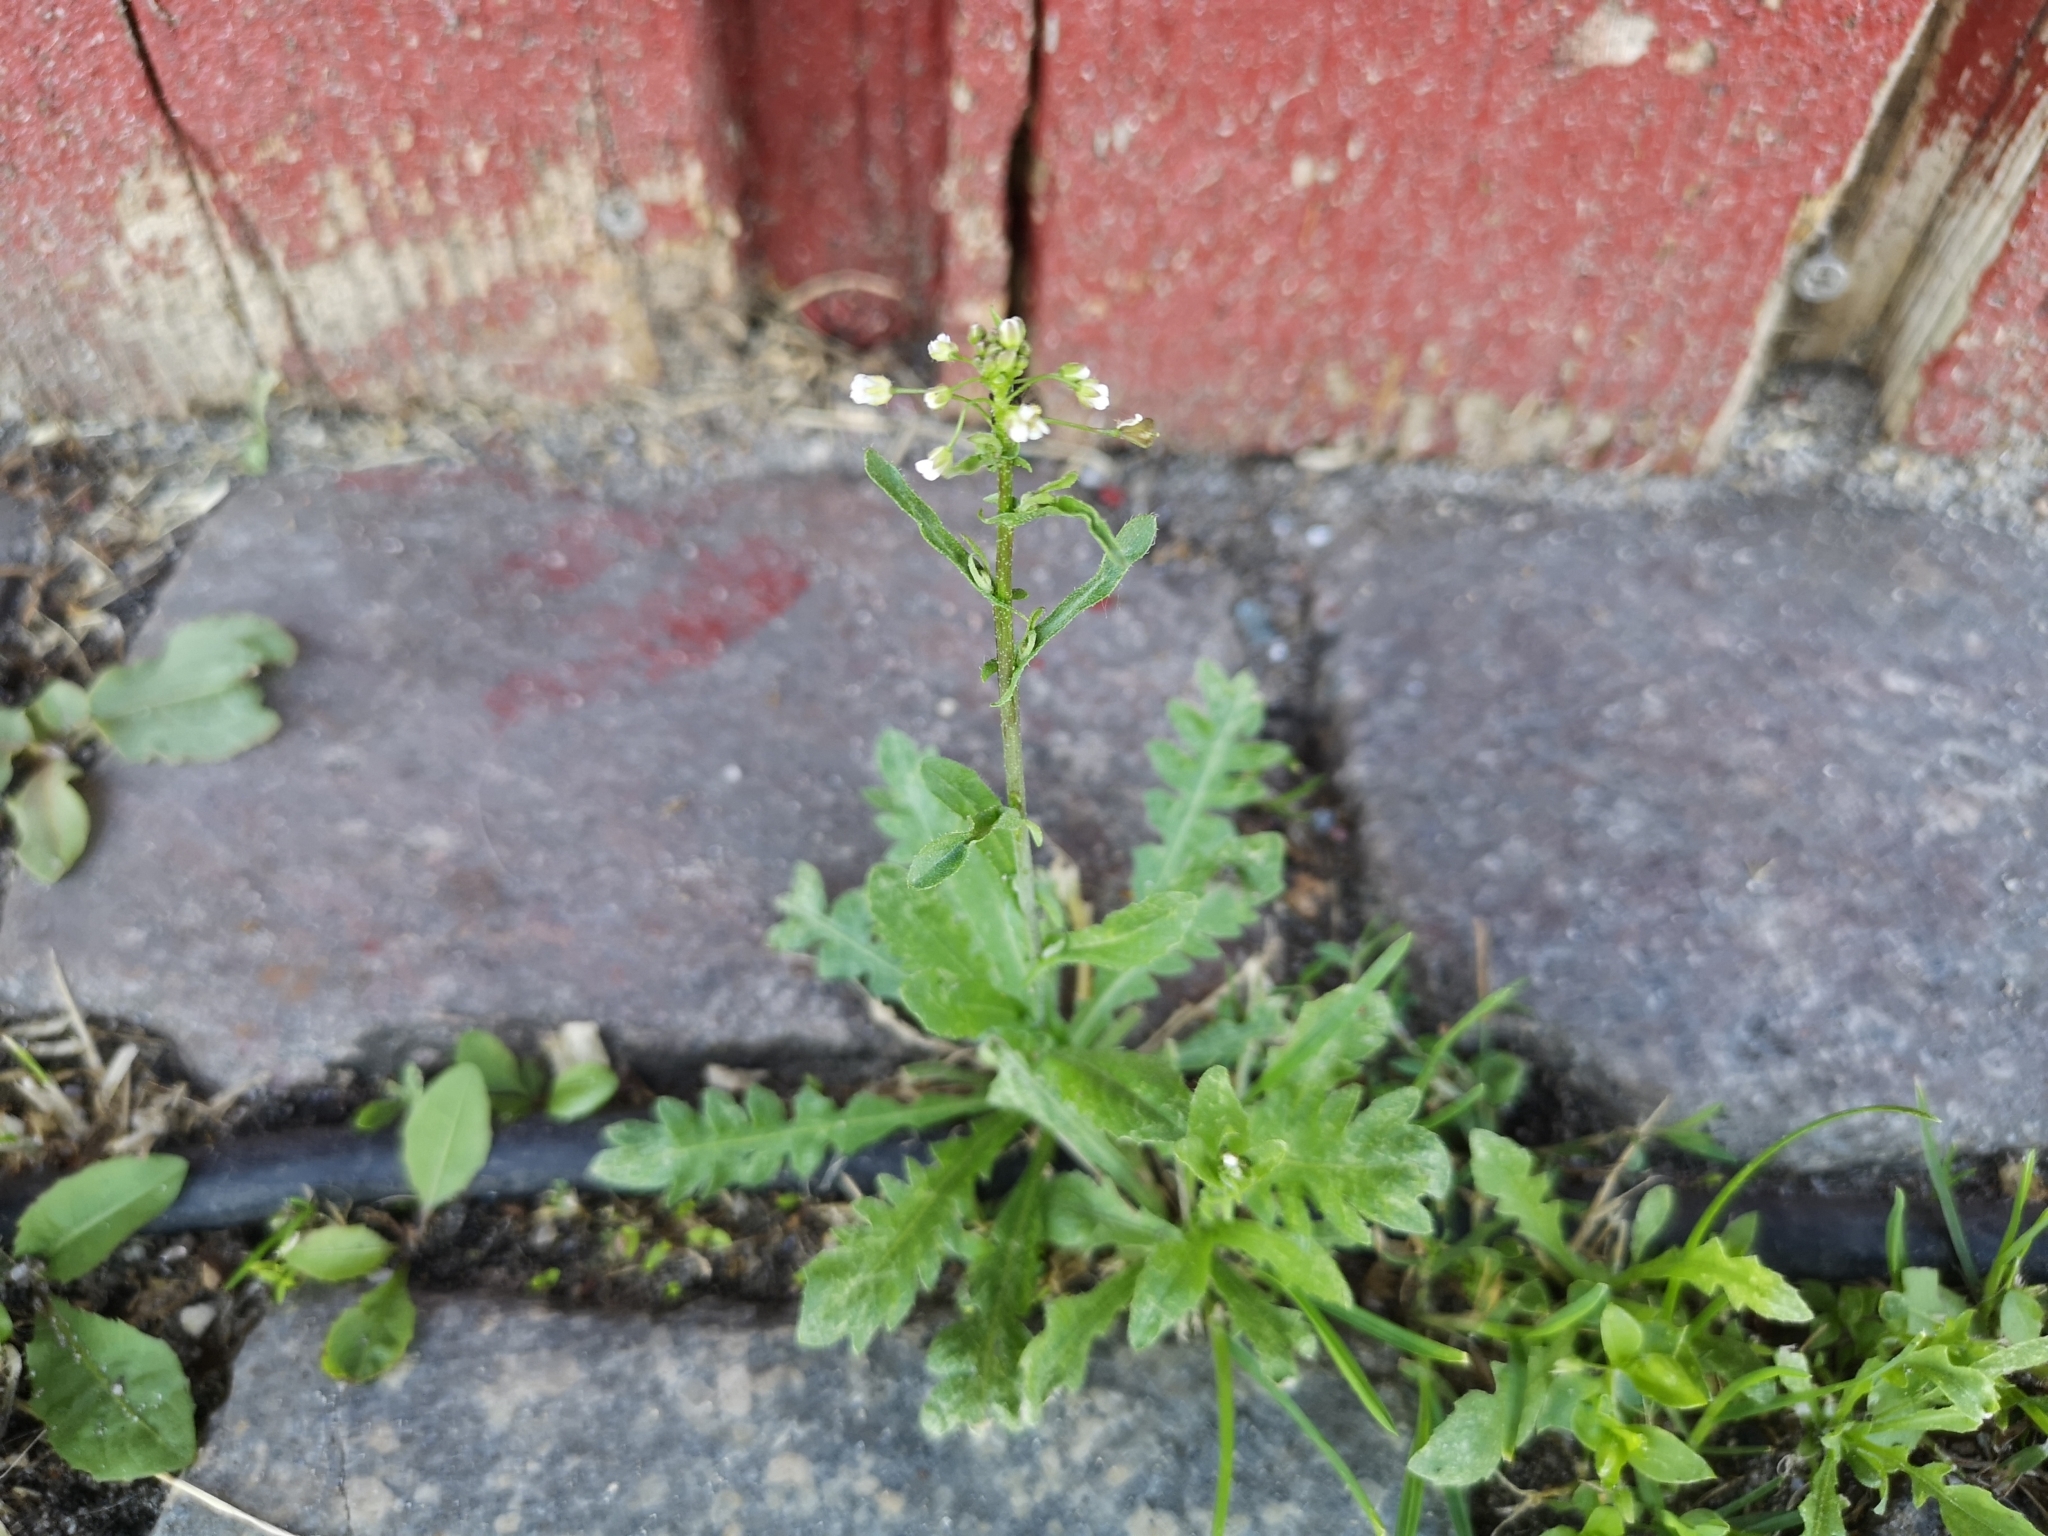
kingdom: Plantae
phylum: Tracheophyta
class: Magnoliopsida
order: Brassicales
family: Brassicaceae
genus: Capsella
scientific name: Capsella bursa-pastoris
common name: Shepherd's purse
